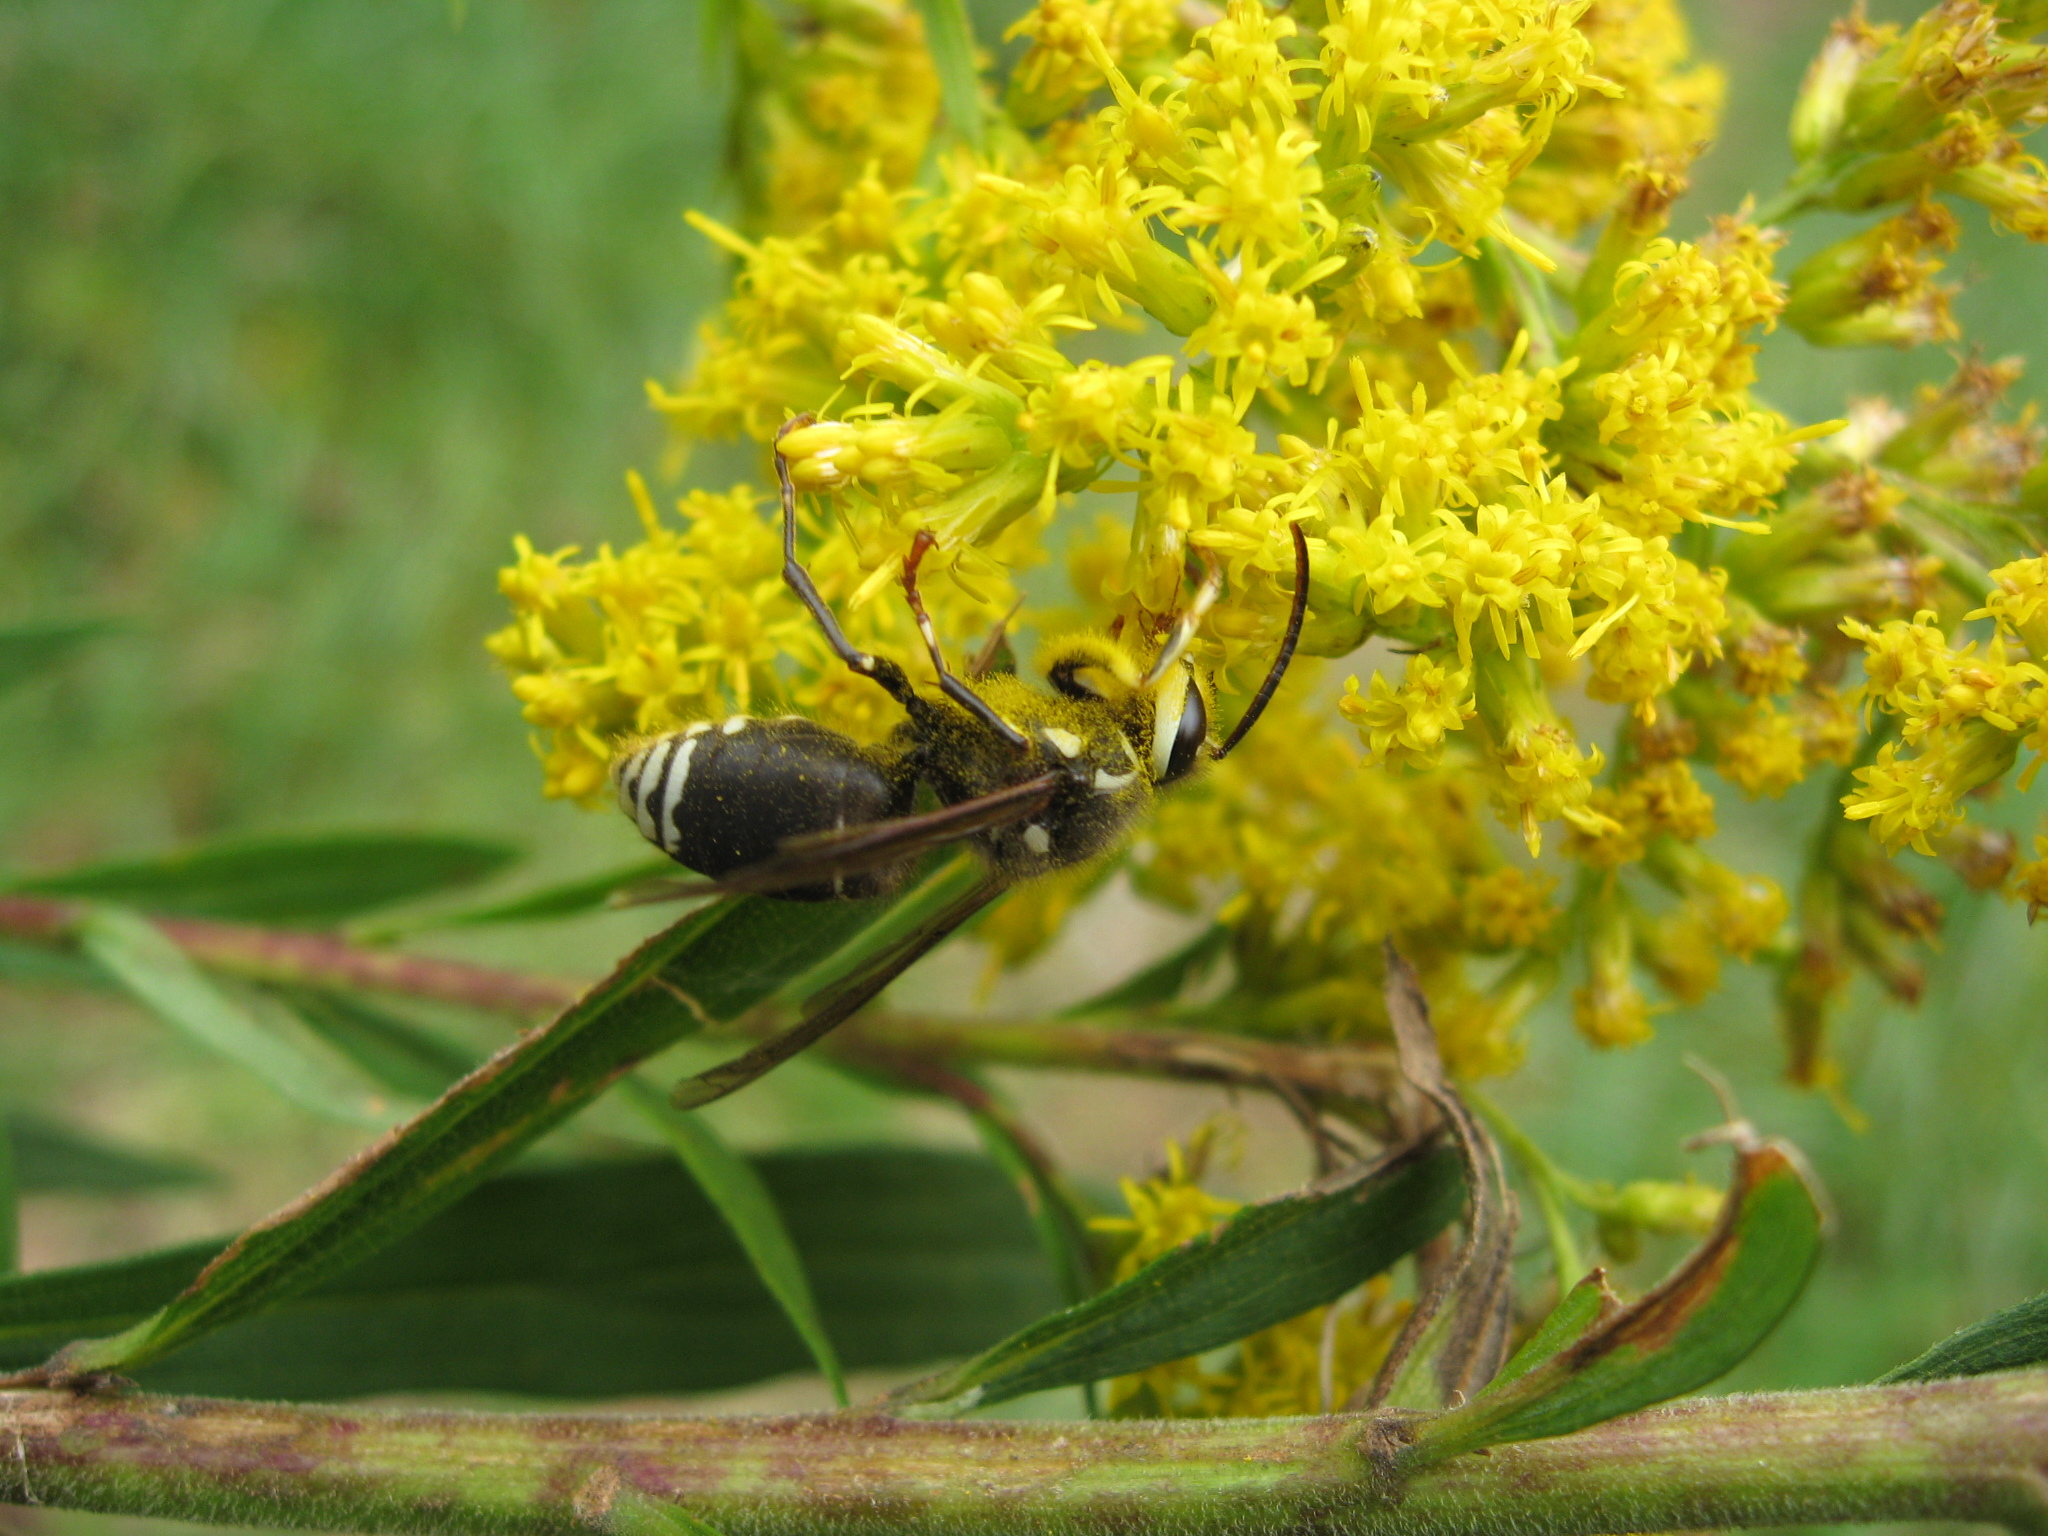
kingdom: Animalia
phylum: Arthropoda
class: Insecta
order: Hymenoptera
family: Vespidae
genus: Dolichovespula
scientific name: Dolichovespula maculata
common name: Bald-faced hornet
